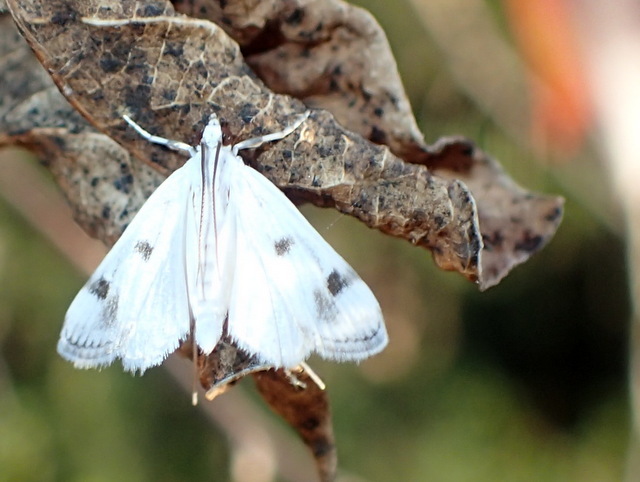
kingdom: Animalia
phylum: Arthropoda
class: Insecta
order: Lepidoptera
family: Crambidae
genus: Parapoynx
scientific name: Parapoynx maculalis
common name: Polymorphic pondweed moth
